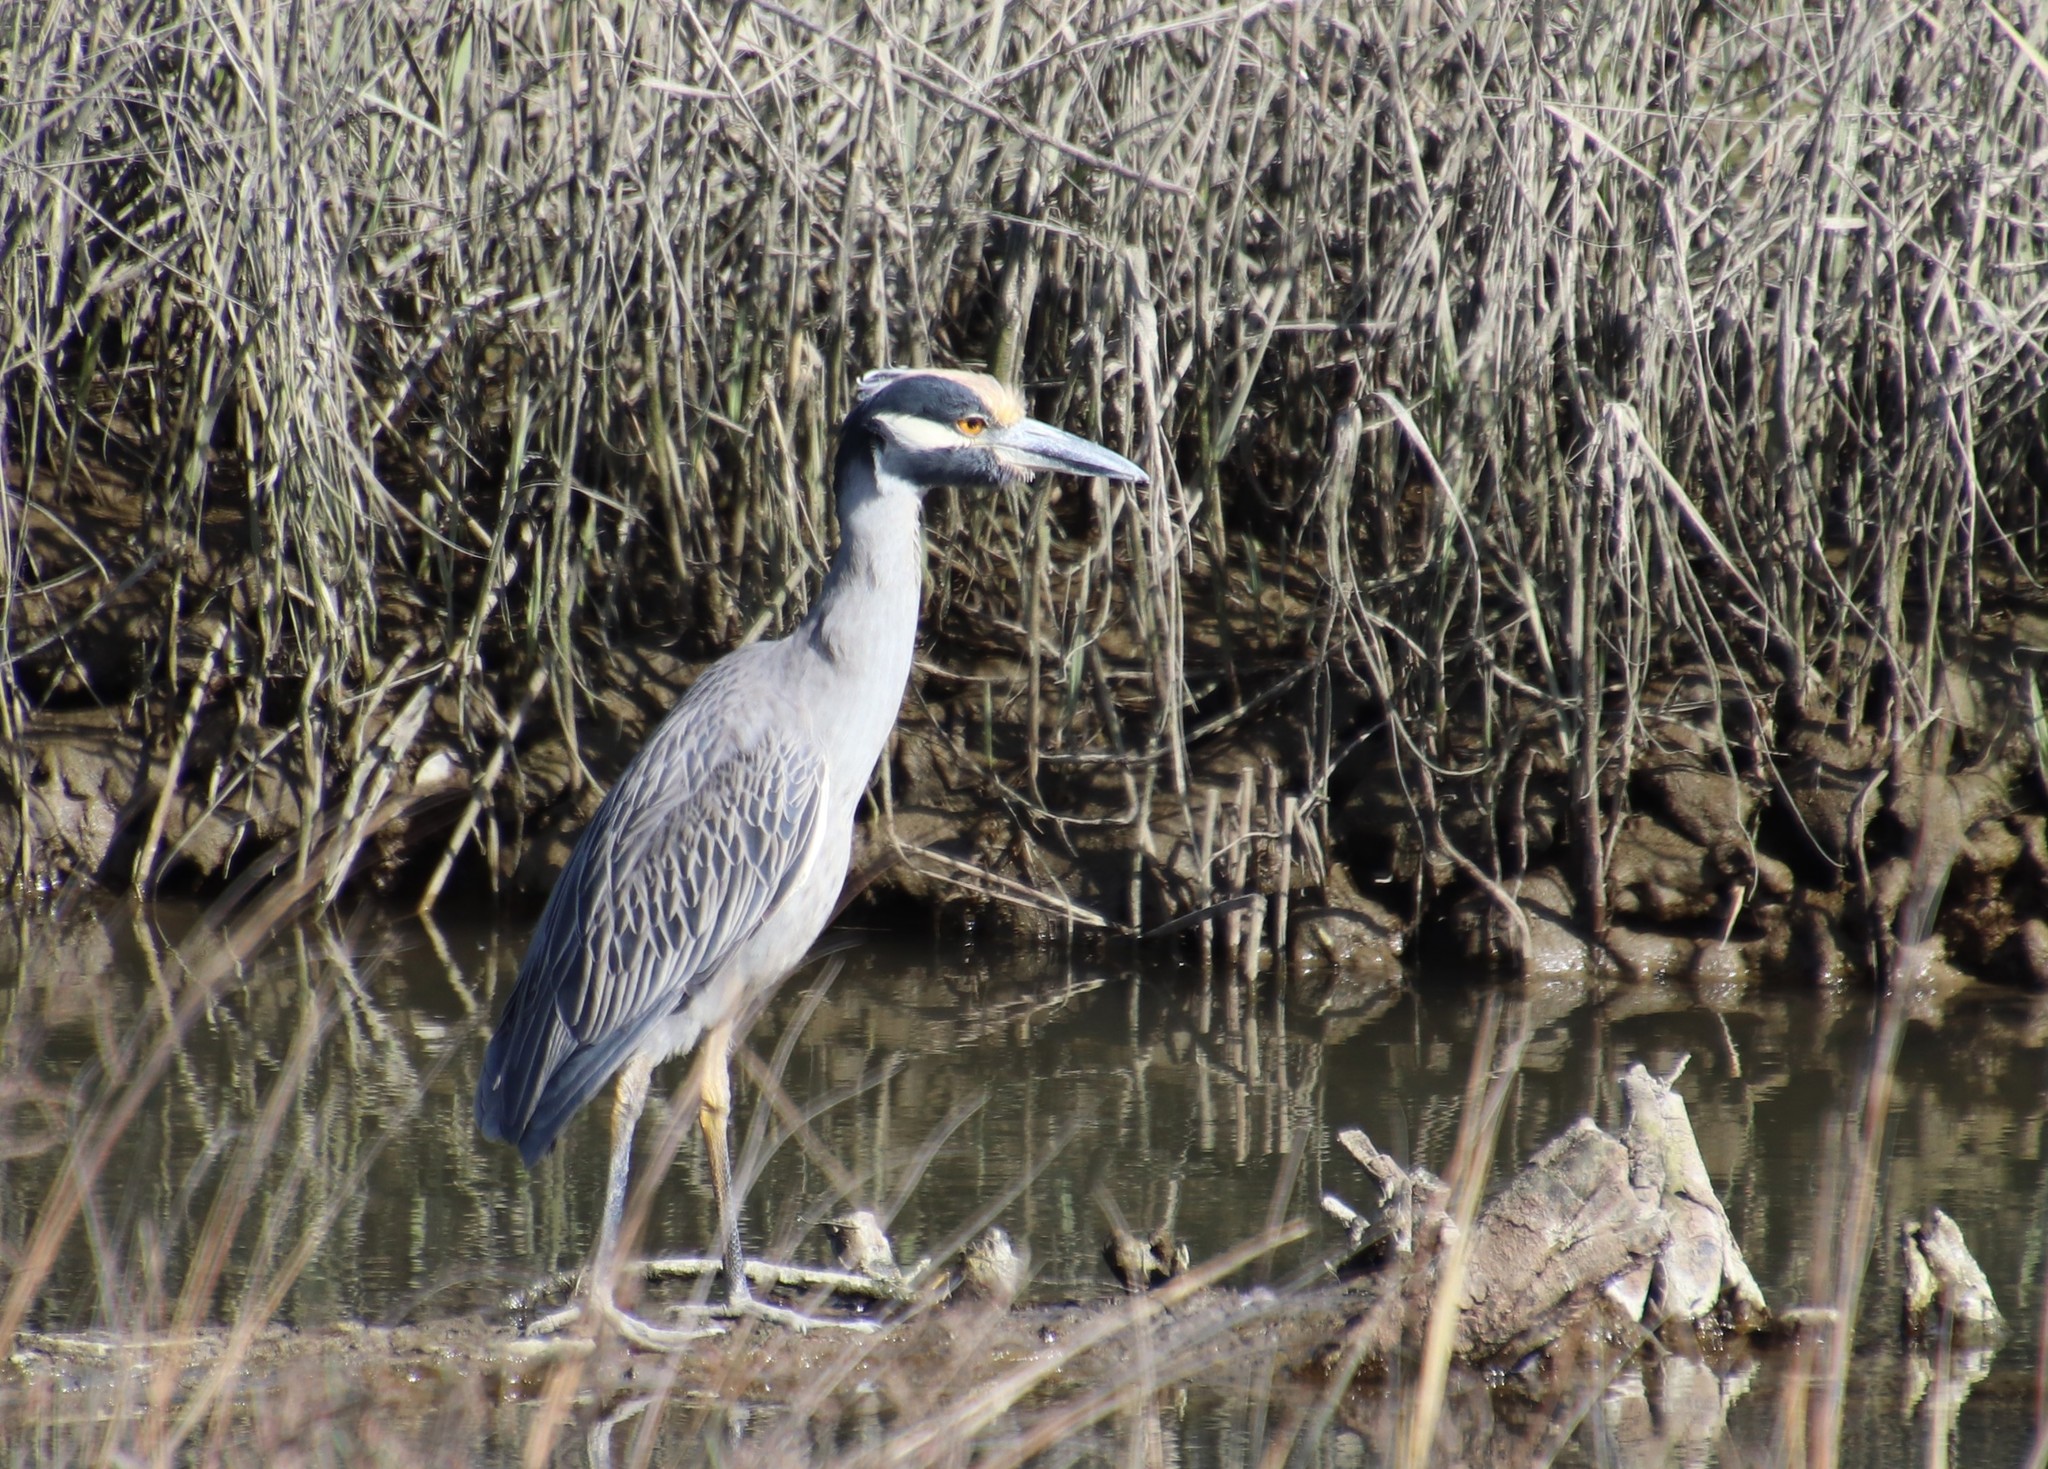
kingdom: Animalia
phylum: Chordata
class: Aves
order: Pelecaniformes
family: Ardeidae
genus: Nyctanassa
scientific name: Nyctanassa violacea
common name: Yellow-crowned night heron
